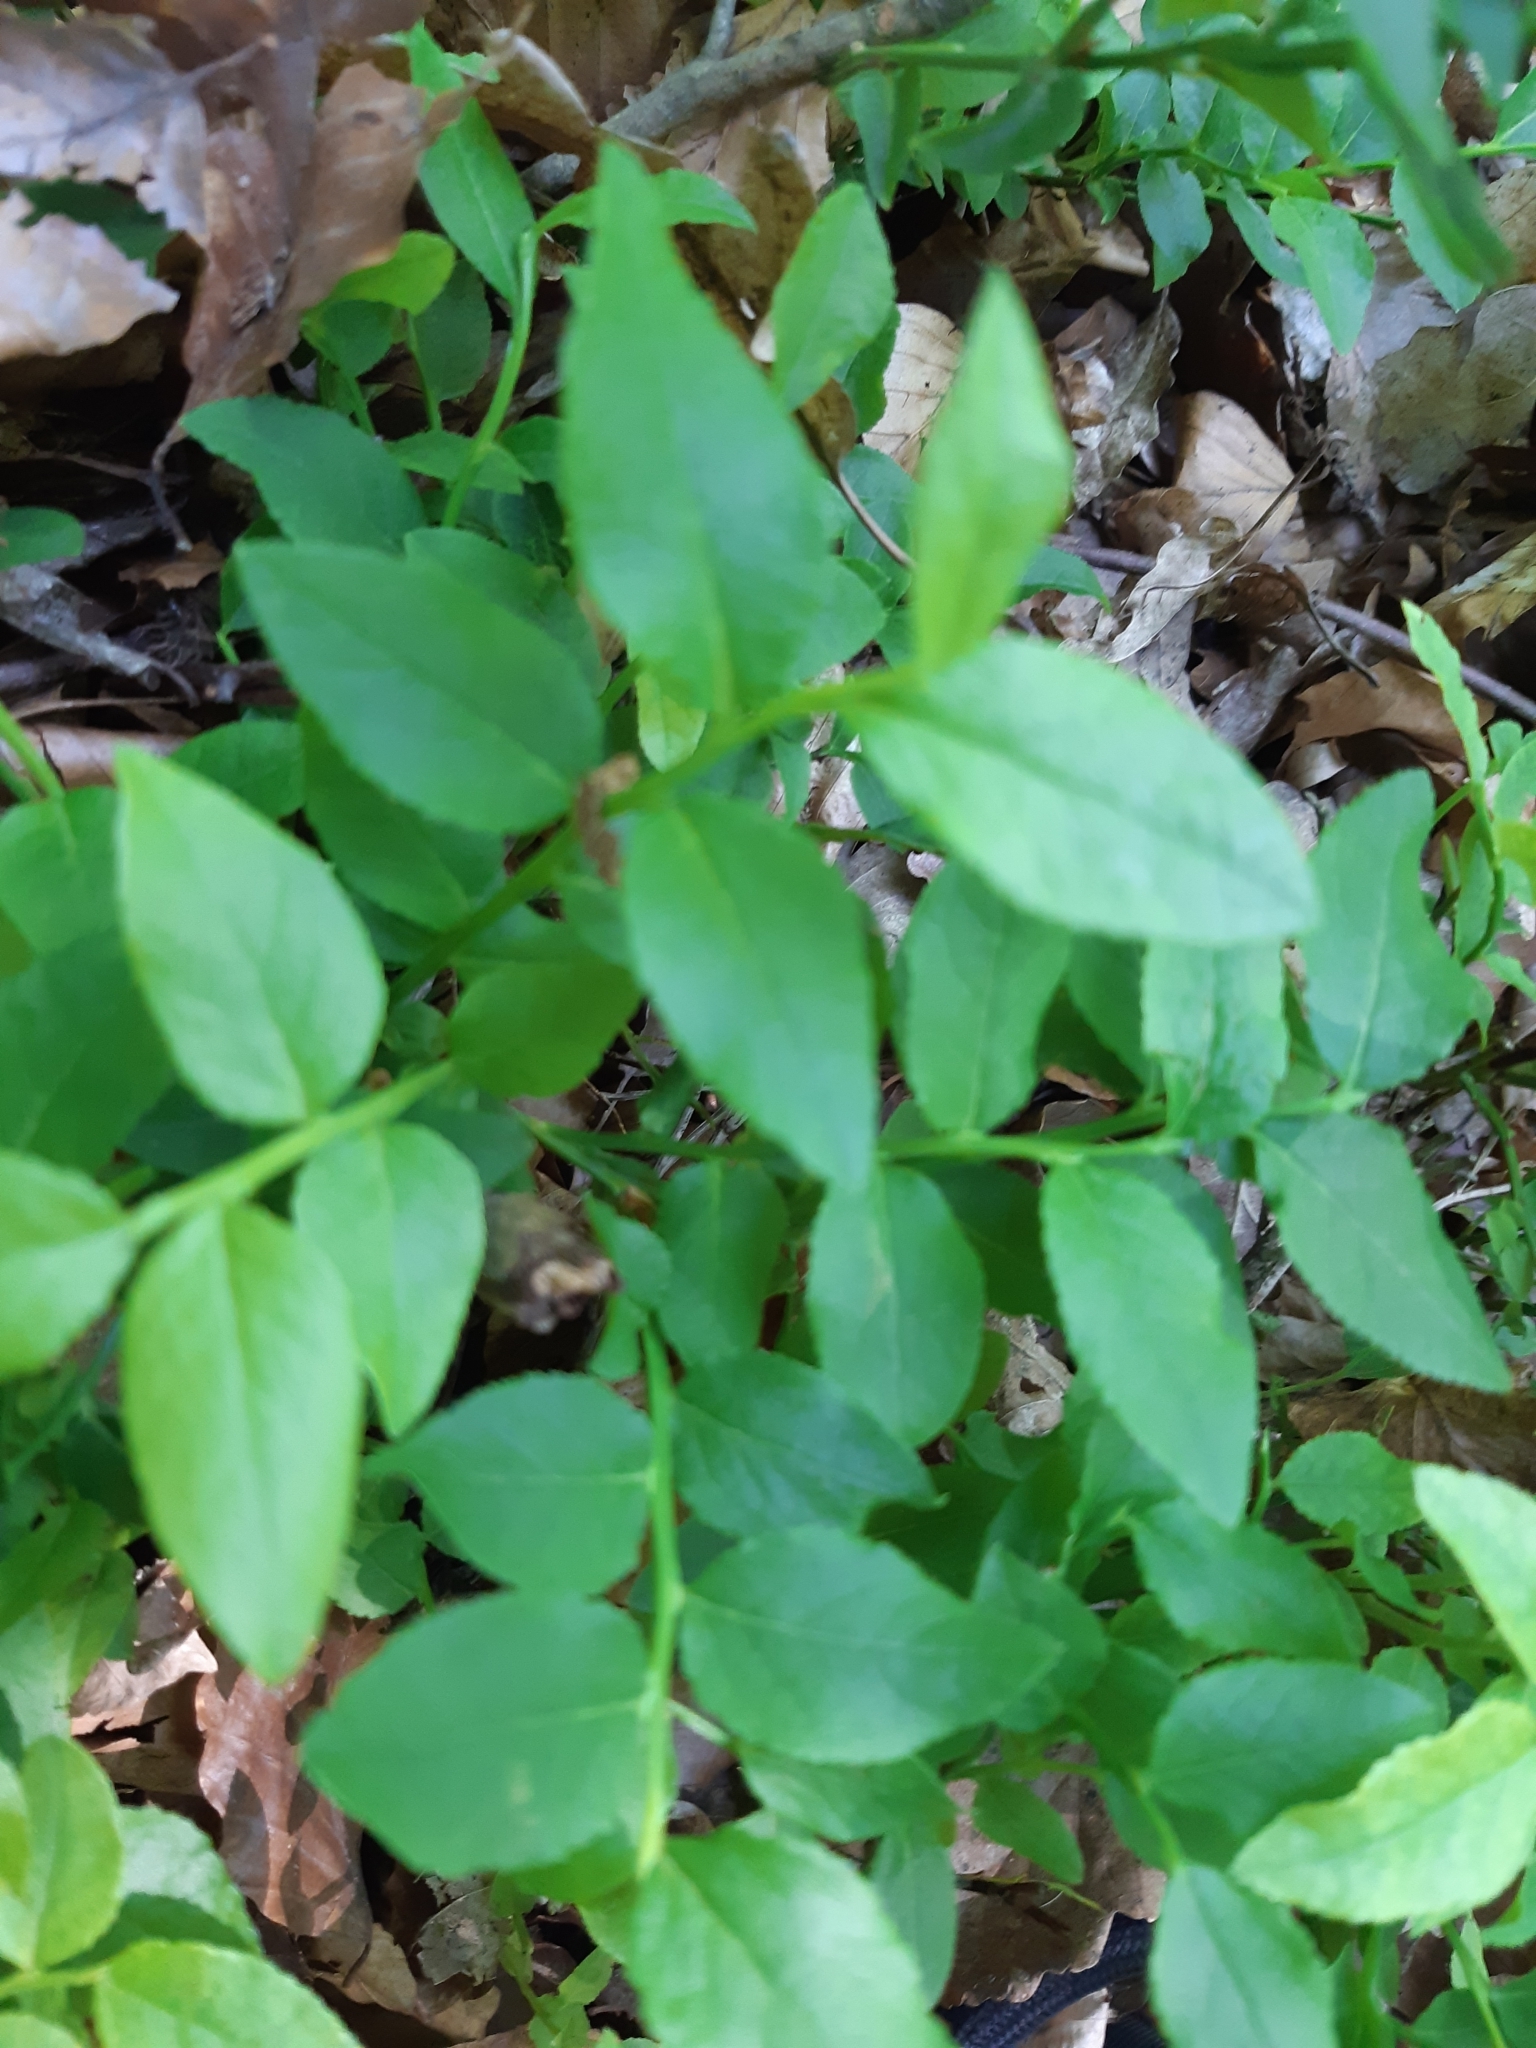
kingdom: Plantae
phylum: Tracheophyta
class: Magnoliopsida
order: Ericales
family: Ericaceae
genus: Vaccinium
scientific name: Vaccinium myrtillus
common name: Bilberry
